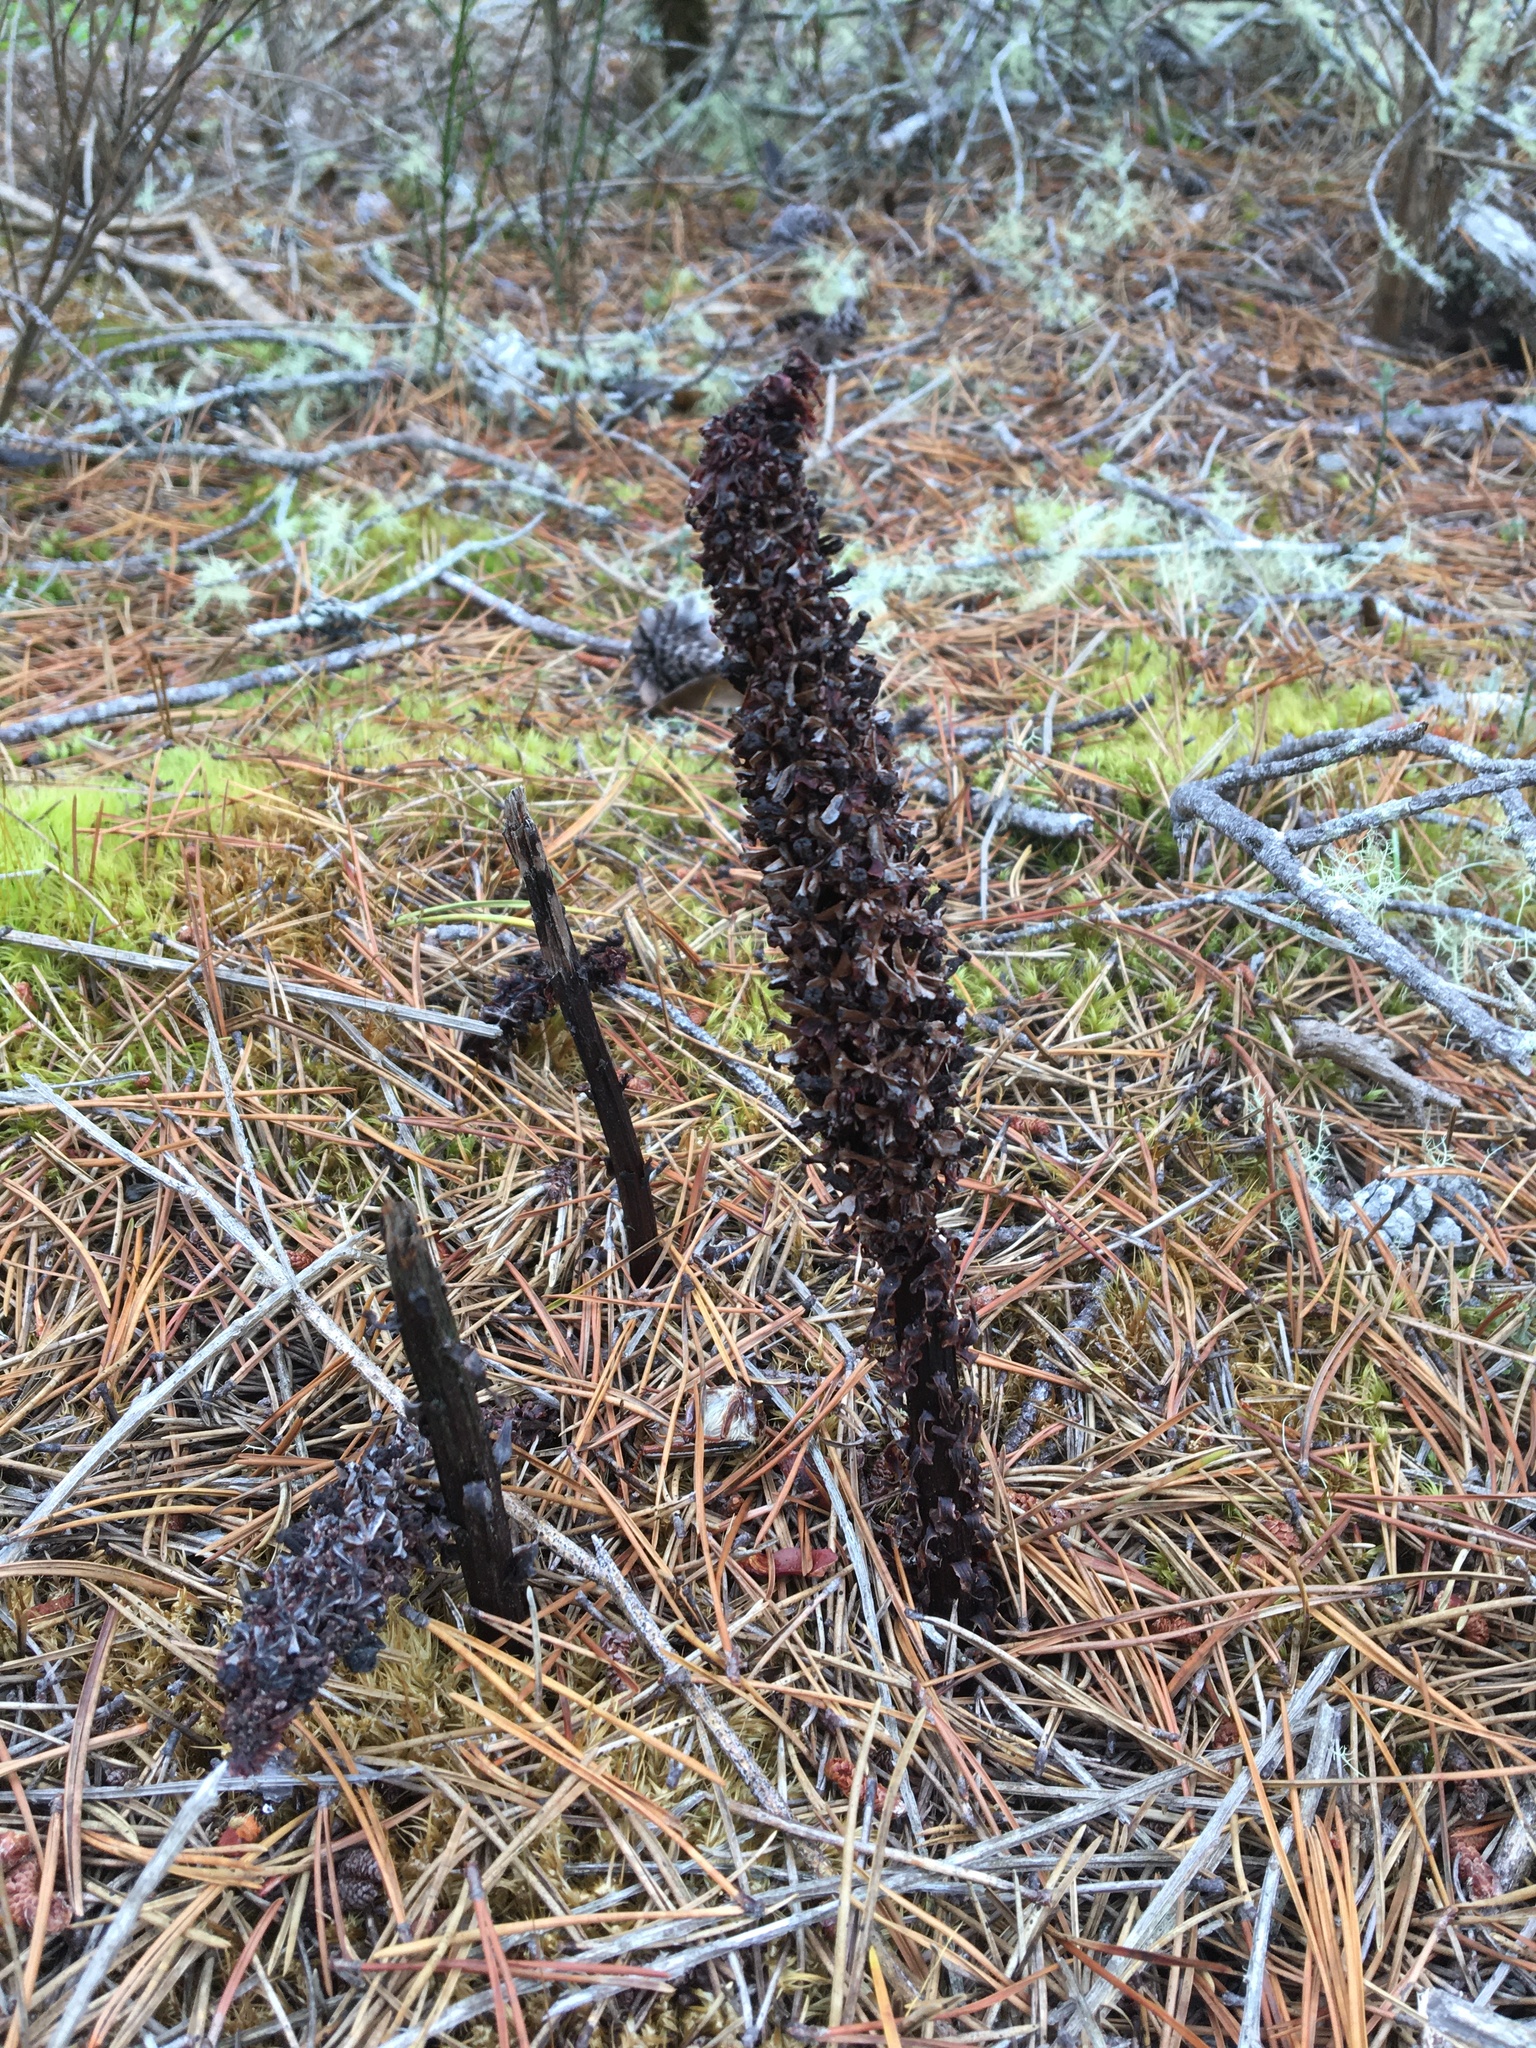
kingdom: Plantae
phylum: Tracheophyta
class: Magnoliopsida
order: Ericales
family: Ericaceae
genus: Allotropa
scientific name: Allotropa virgata
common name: Candy-striped allotropa
